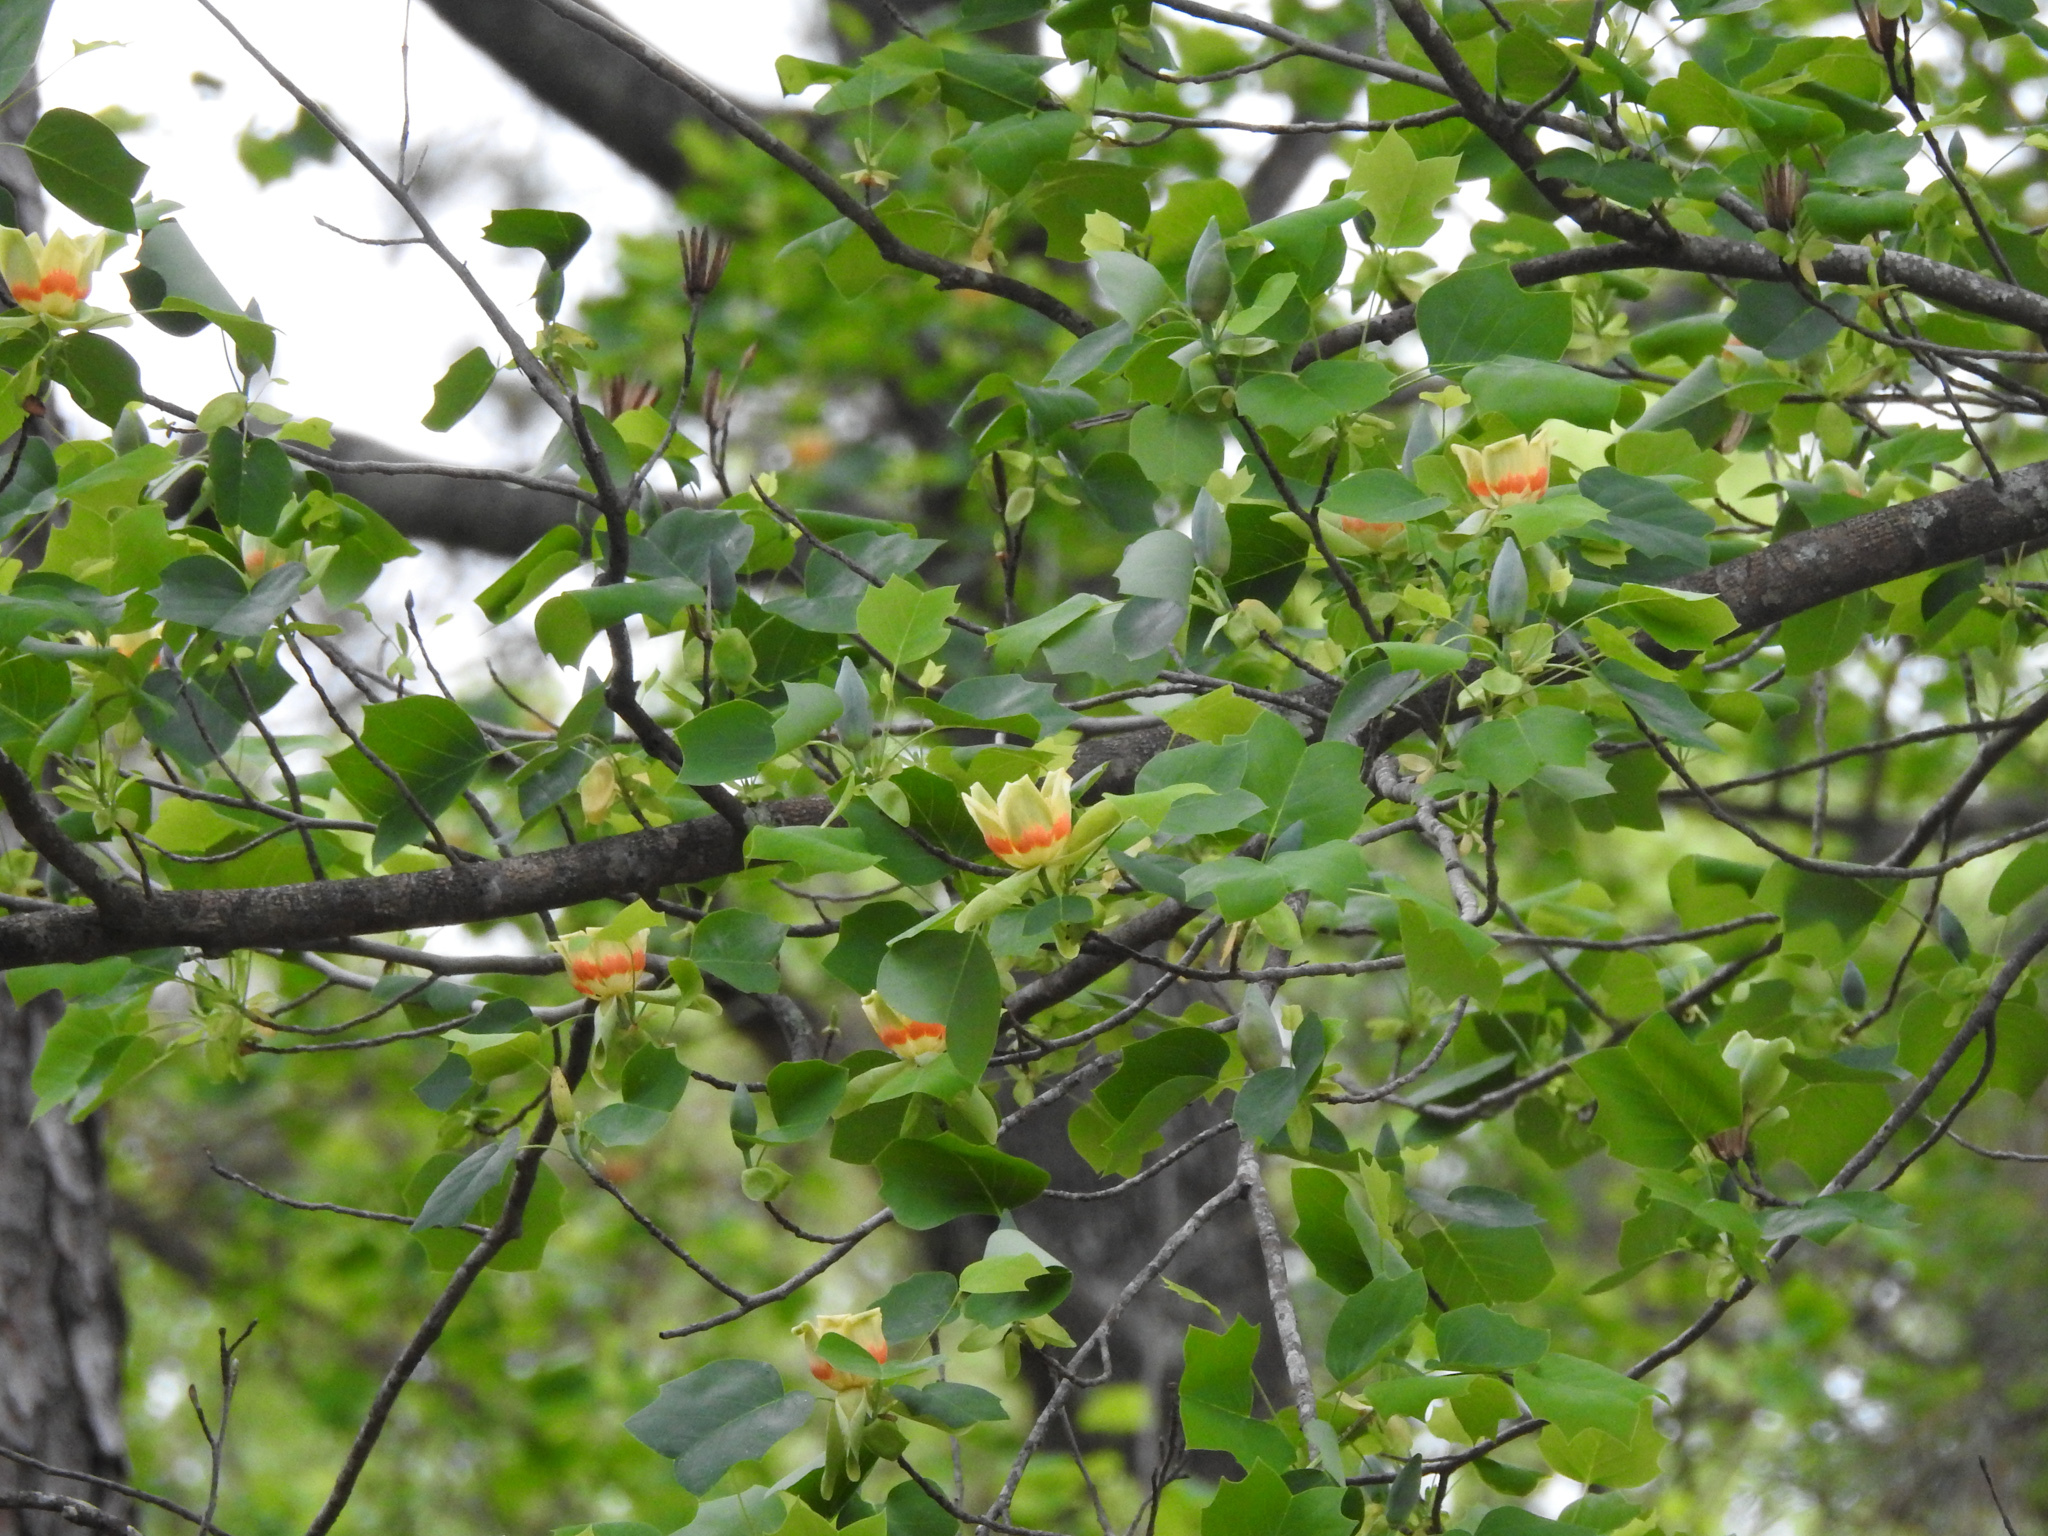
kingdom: Plantae
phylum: Tracheophyta
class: Magnoliopsida
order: Magnoliales
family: Magnoliaceae
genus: Liriodendron
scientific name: Liriodendron tulipifera
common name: Tulip tree
